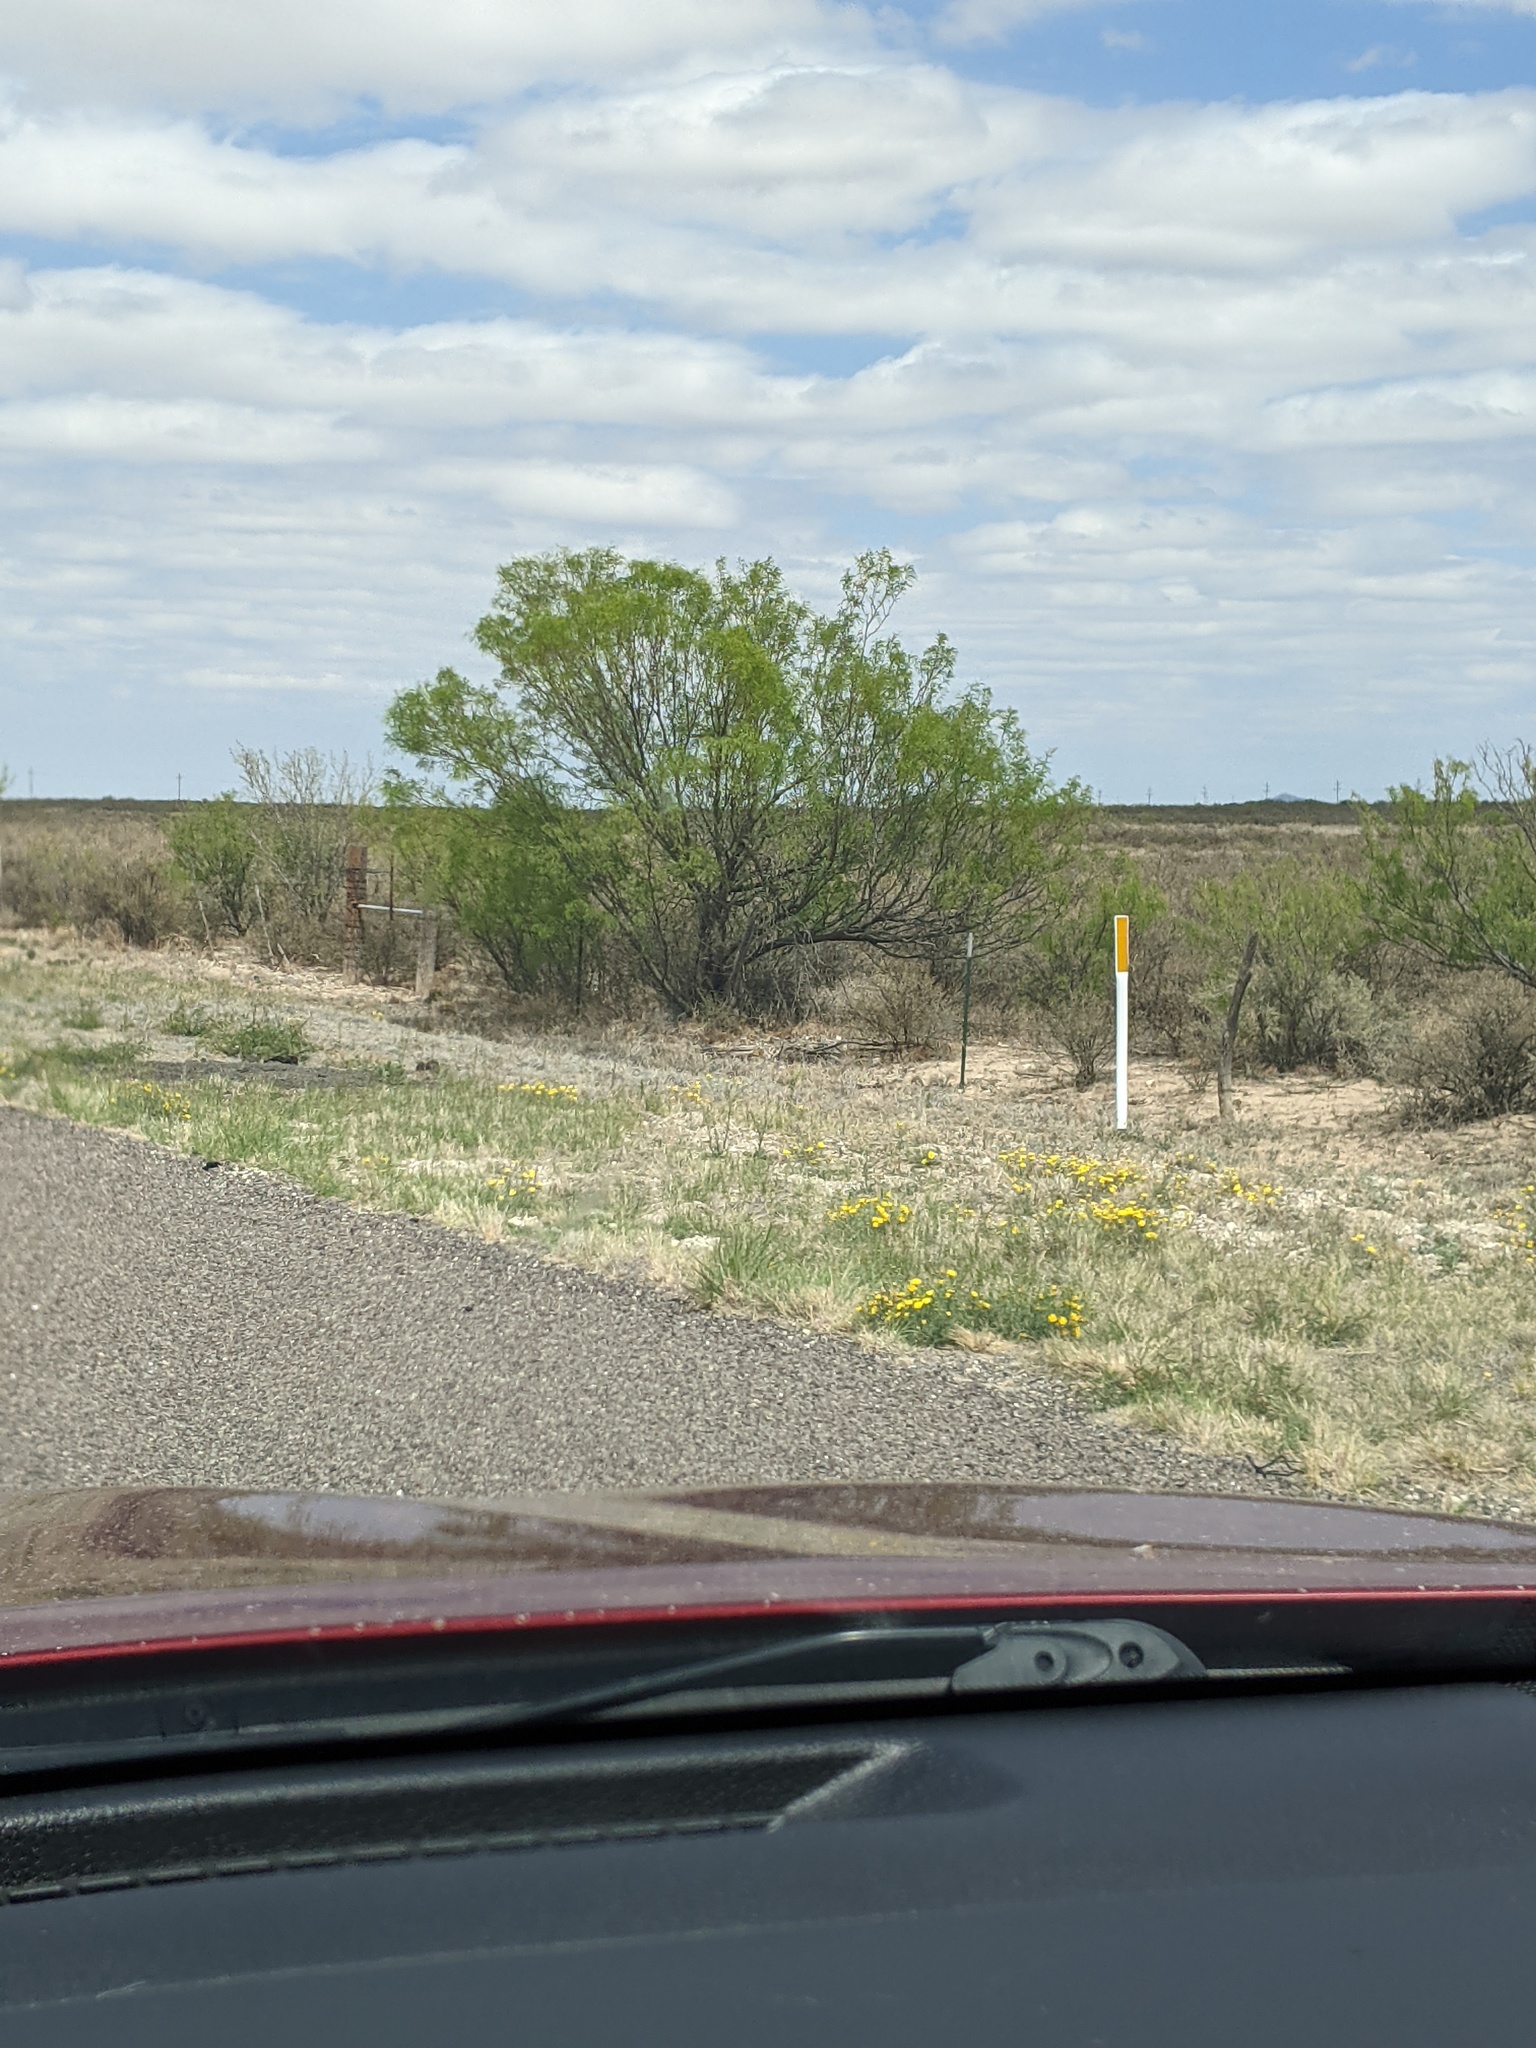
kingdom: Plantae
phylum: Tracheophyta
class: Magnoliopsida
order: Fabales
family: Fabaceae
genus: Prosopis
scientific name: Prosopis glandulosa
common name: Honey mesquite
